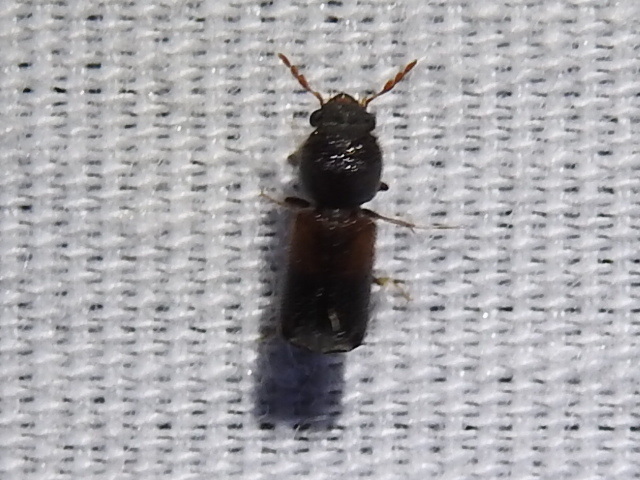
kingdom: Animalia
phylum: Arthropoda
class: Insecta
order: Coleoptera
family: Bostrichidae
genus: Xylobiops
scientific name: Xylobiops basilaris
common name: Red-shouldered bostrichid
